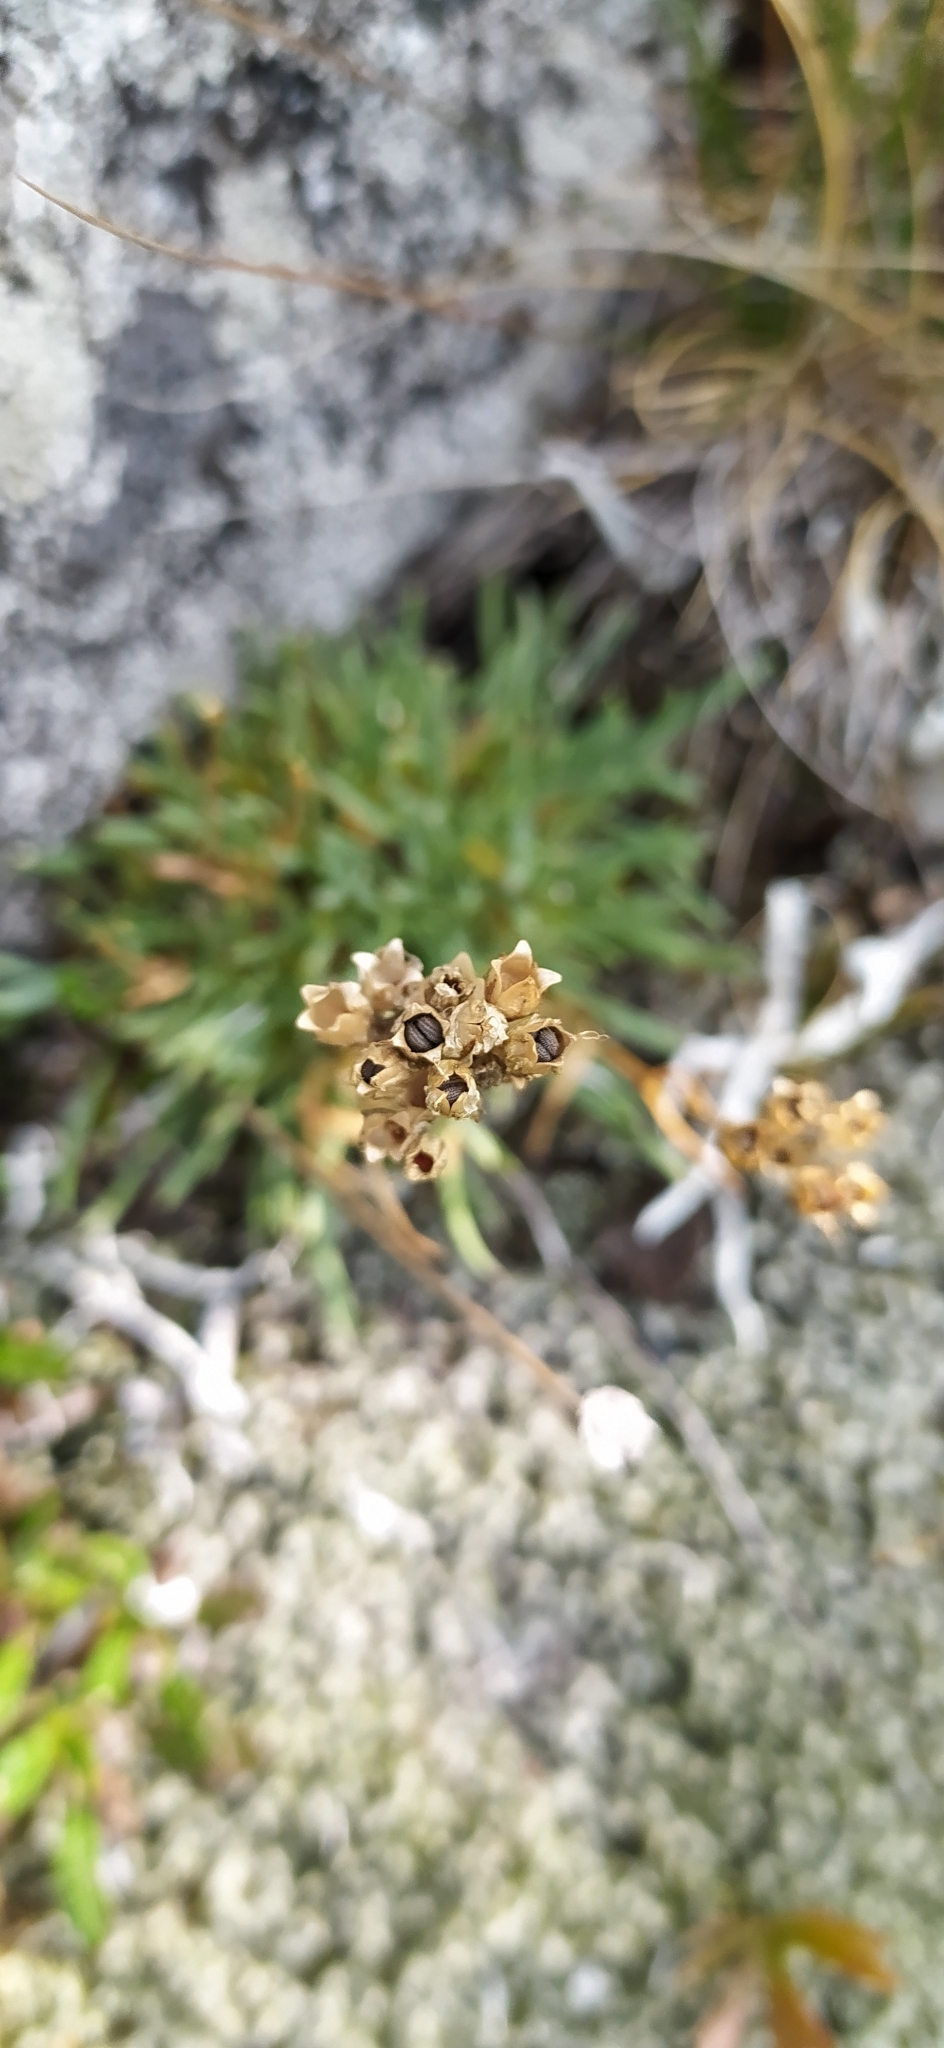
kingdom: Plantae
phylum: Tracheophyta
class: Magnoliopsida
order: Caryophyllales
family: Caryophyllaceae
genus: Gypsophila
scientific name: Gypsophila uralensis
